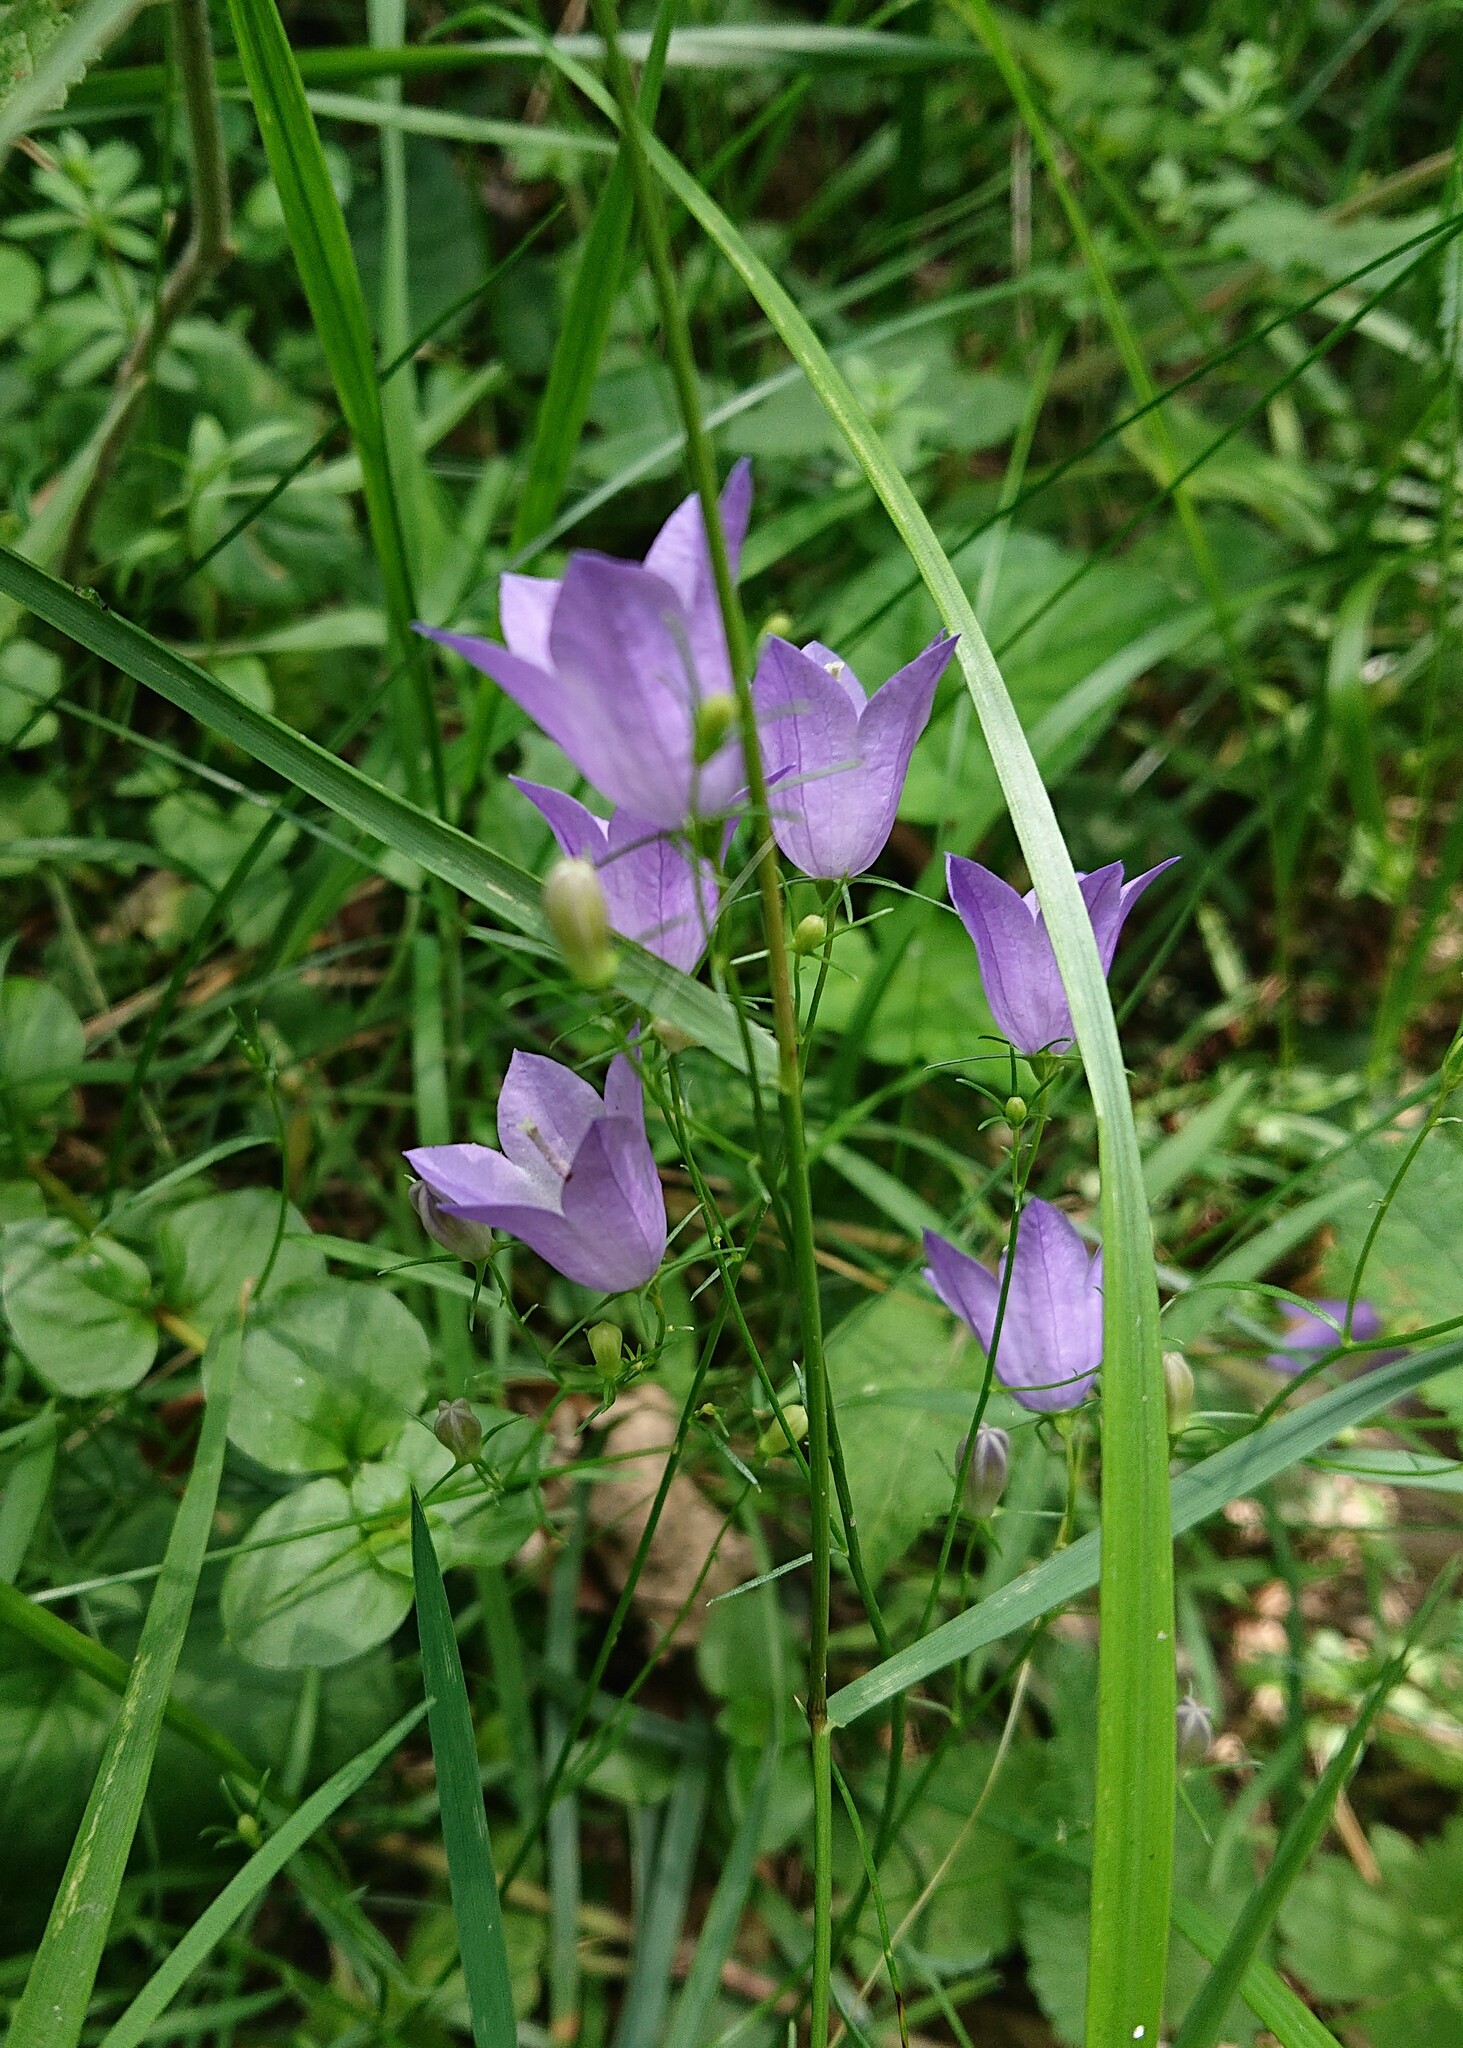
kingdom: Plantae
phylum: Tracheophyta
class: Magnoliopsida
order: Asterales
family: Campanulaceae
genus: Campanula
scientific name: Campanula rotundifolia
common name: Harebell
